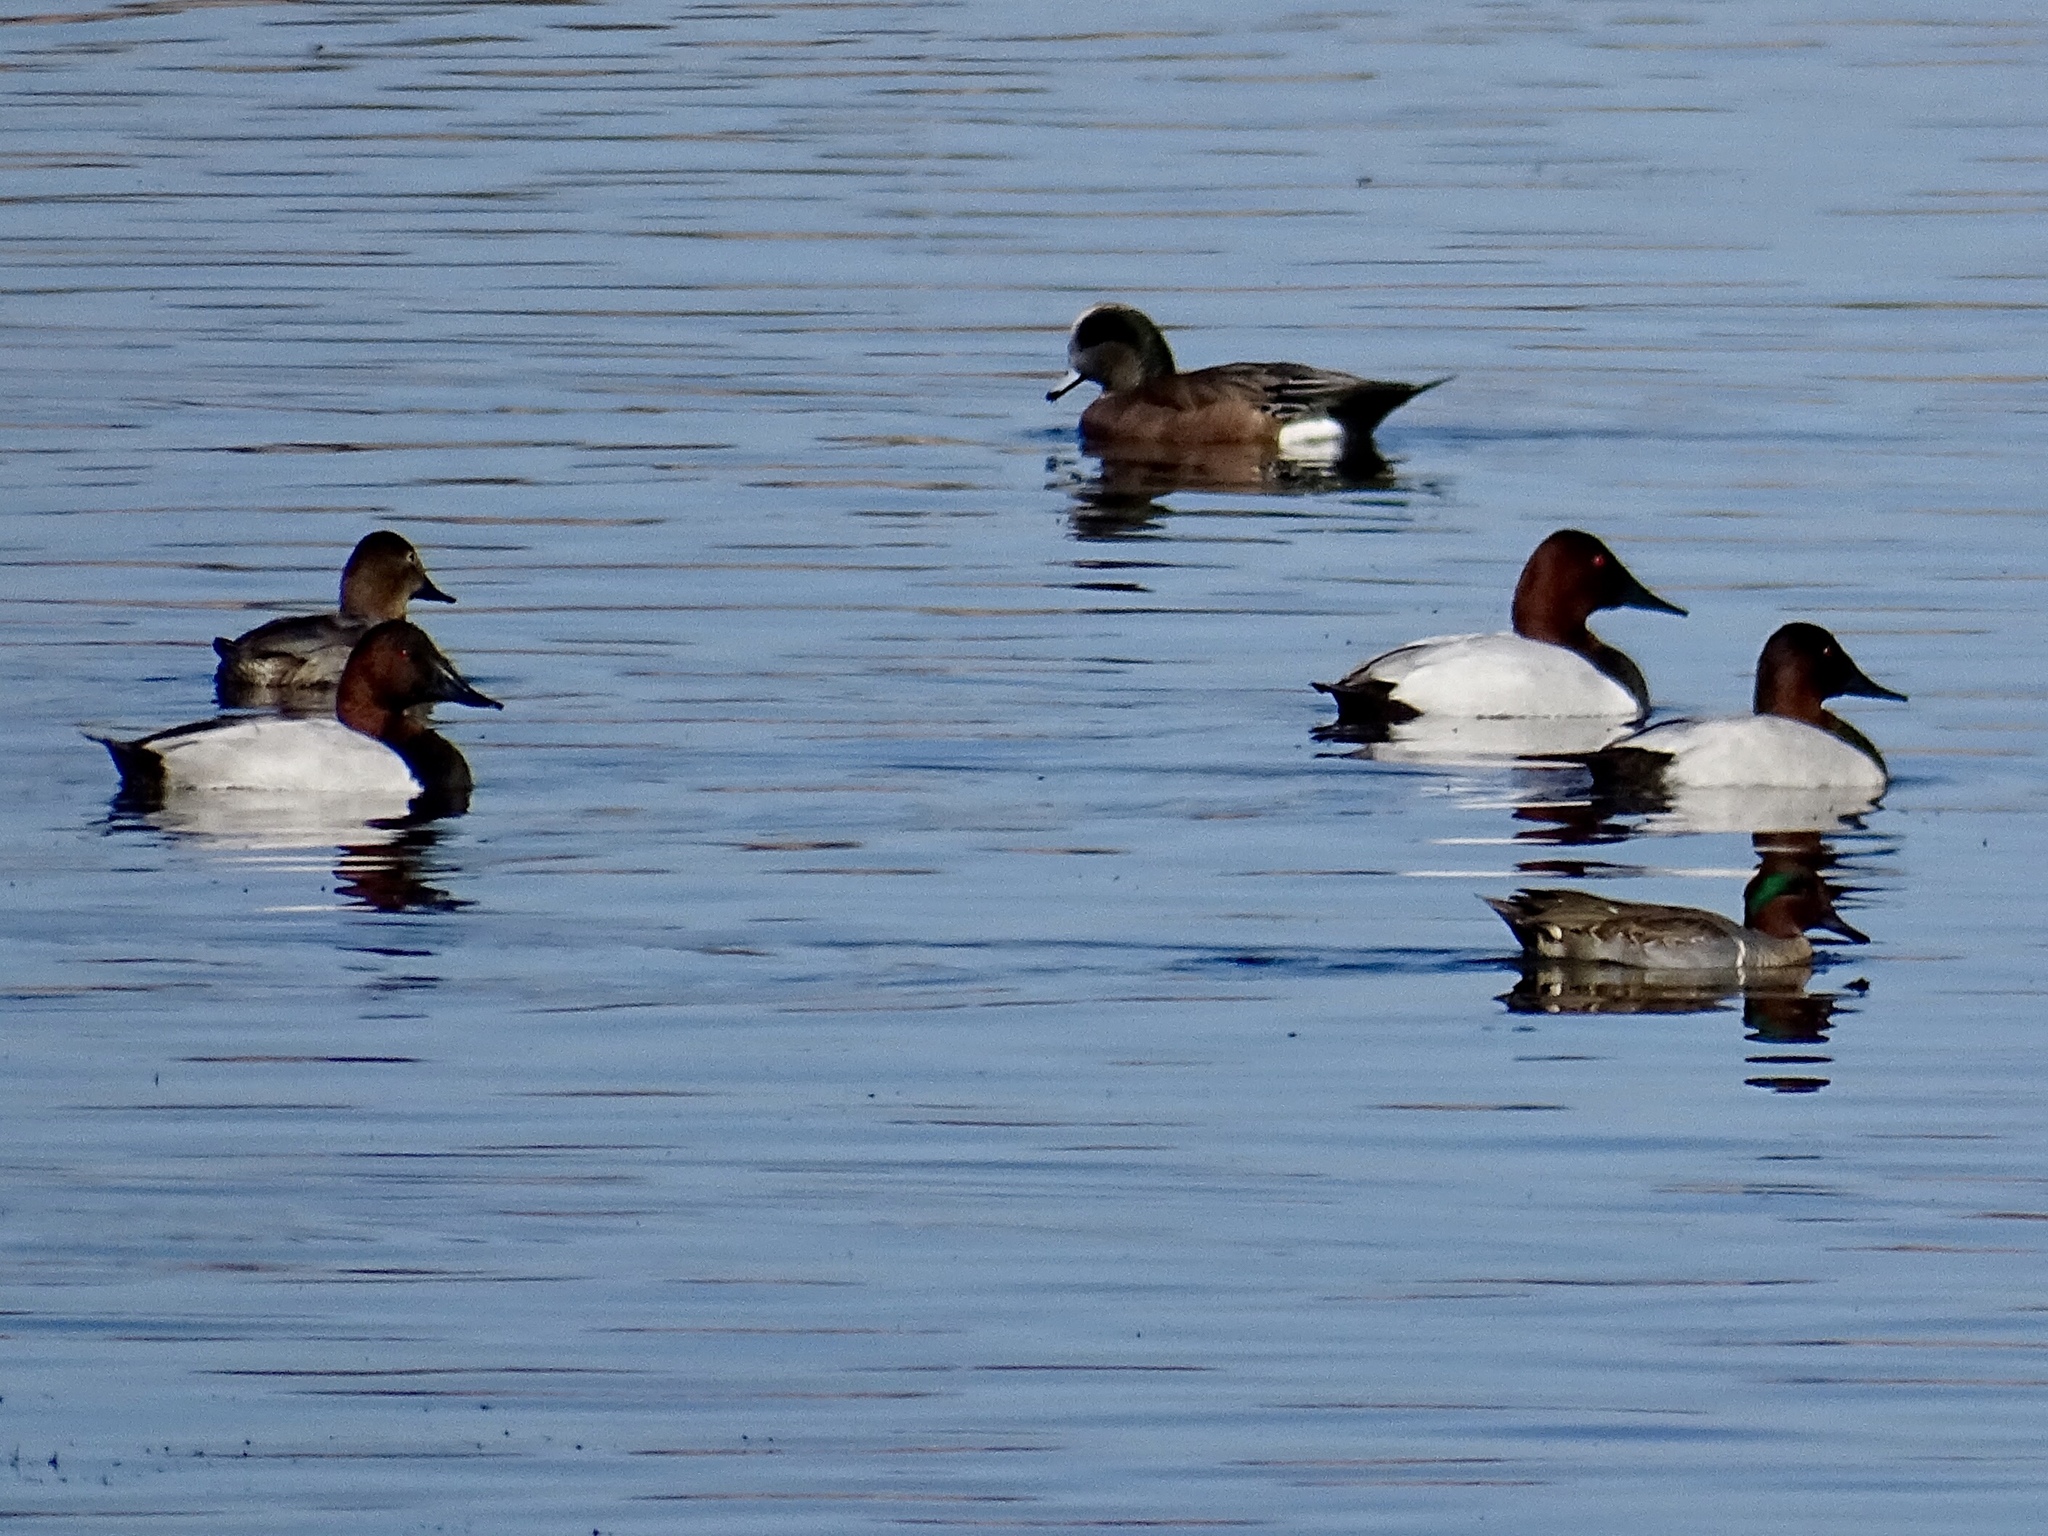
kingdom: Animalia
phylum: Chordata
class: Aves
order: Anseriformes
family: Anatidae
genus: Mareca
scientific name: Mareca americana
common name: American wigeon
